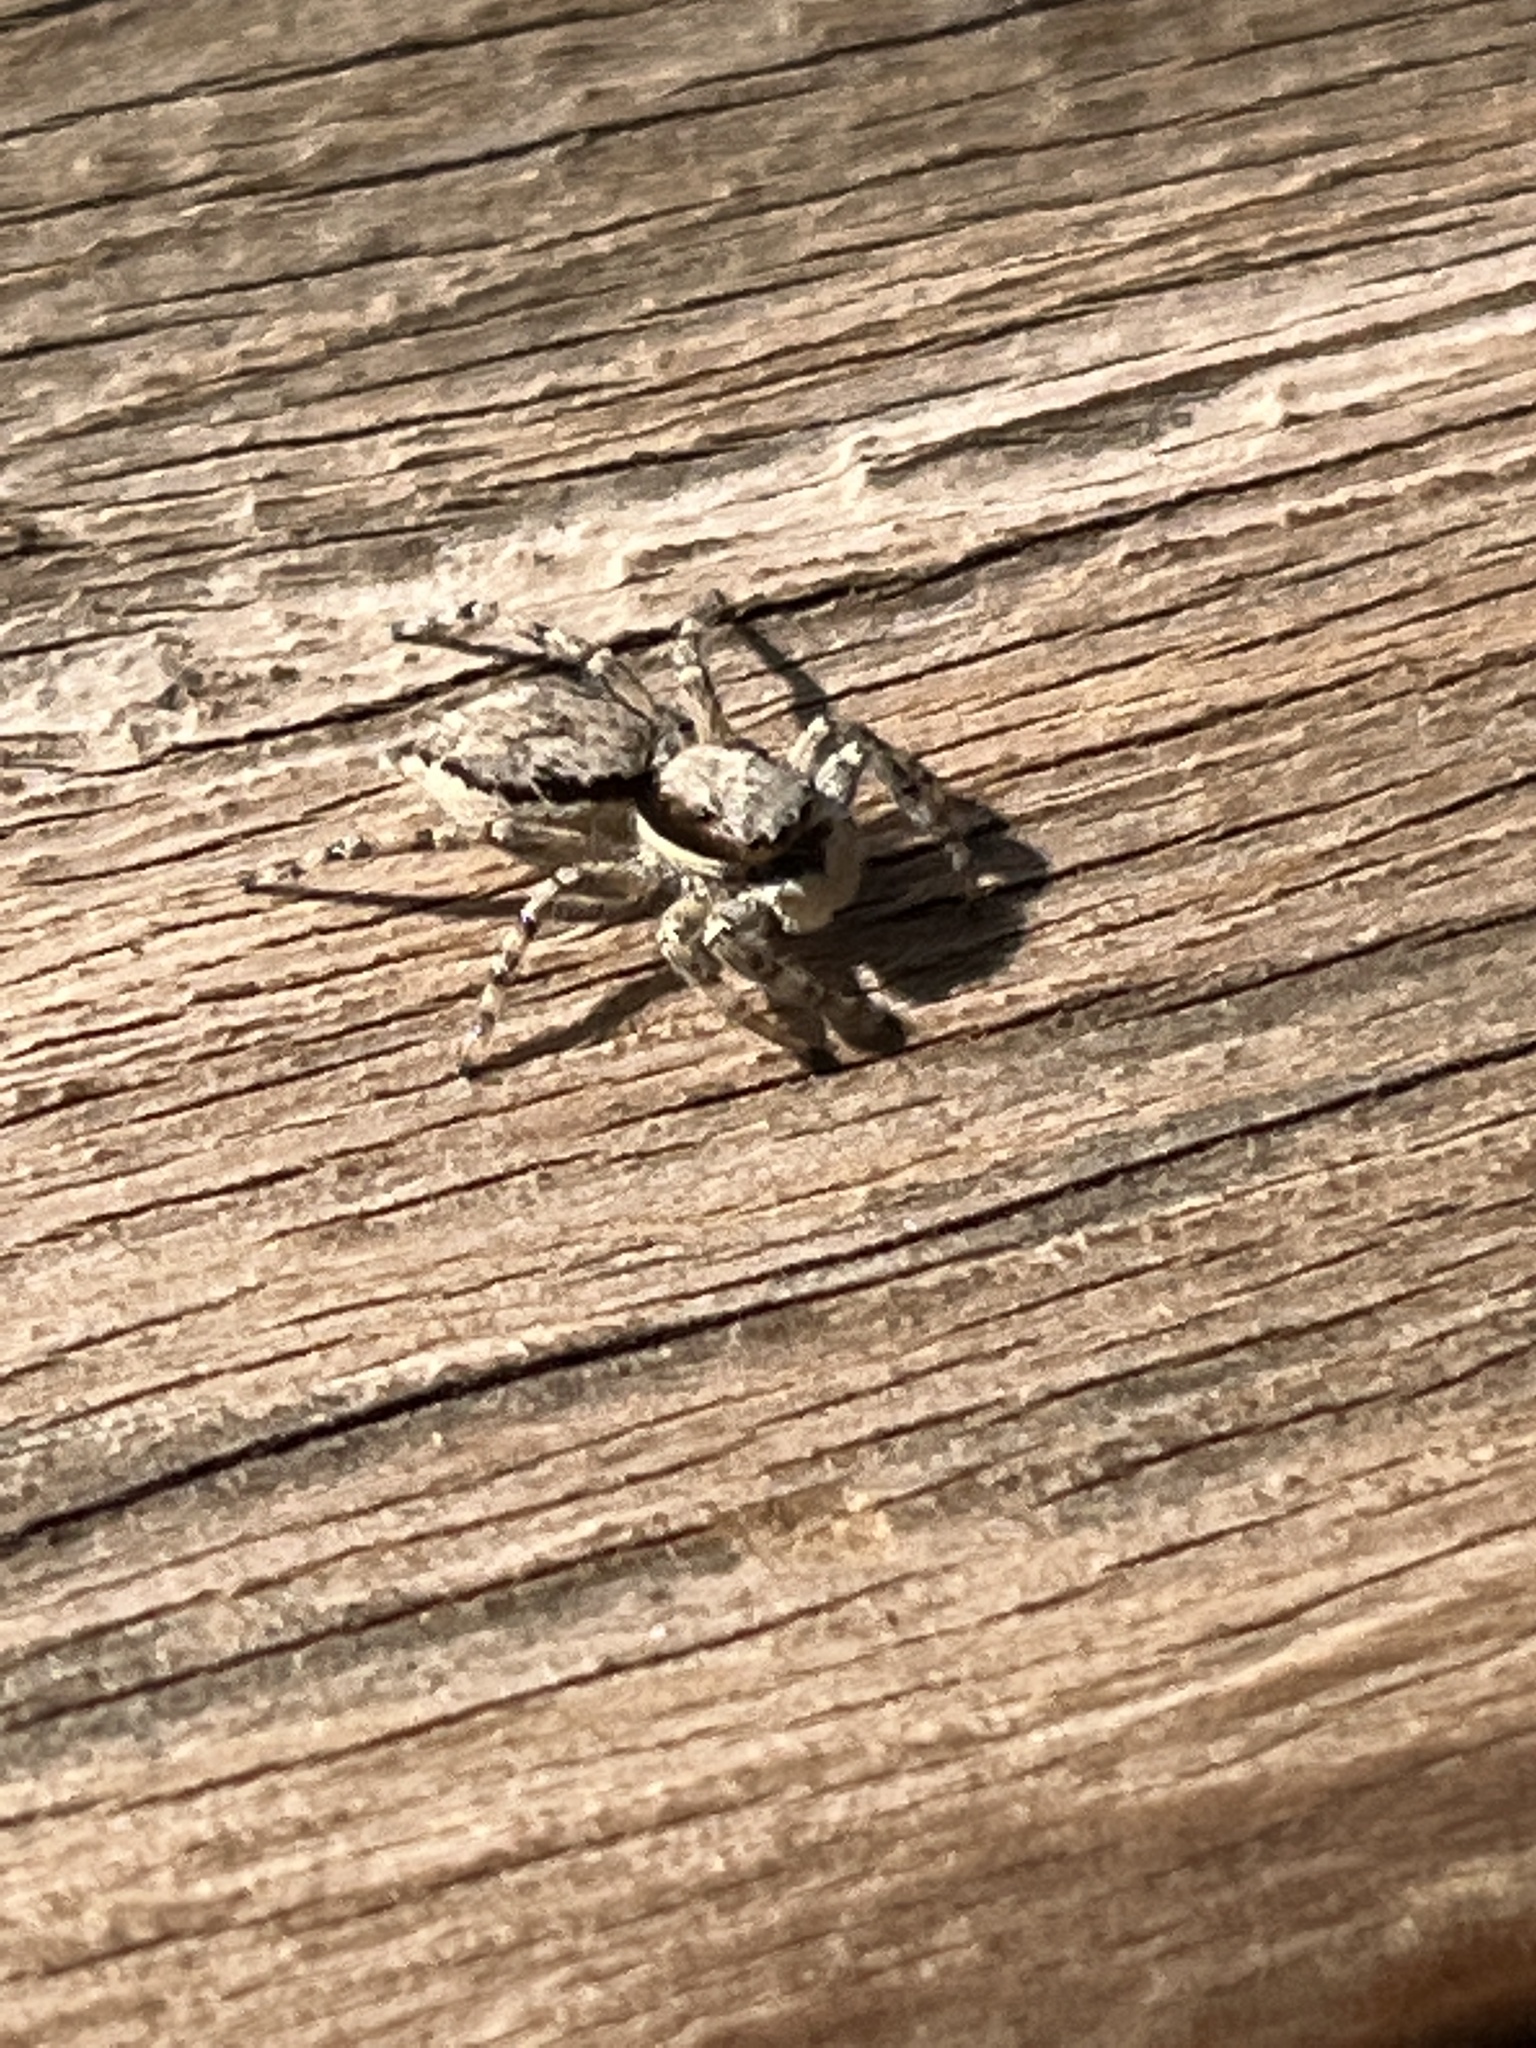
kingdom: Animalia
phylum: Arthropoda
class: Arachnida
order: Araneae
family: Salticidae
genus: Menemerus
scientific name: Menemerus bivittatus
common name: Gray wall jumper
